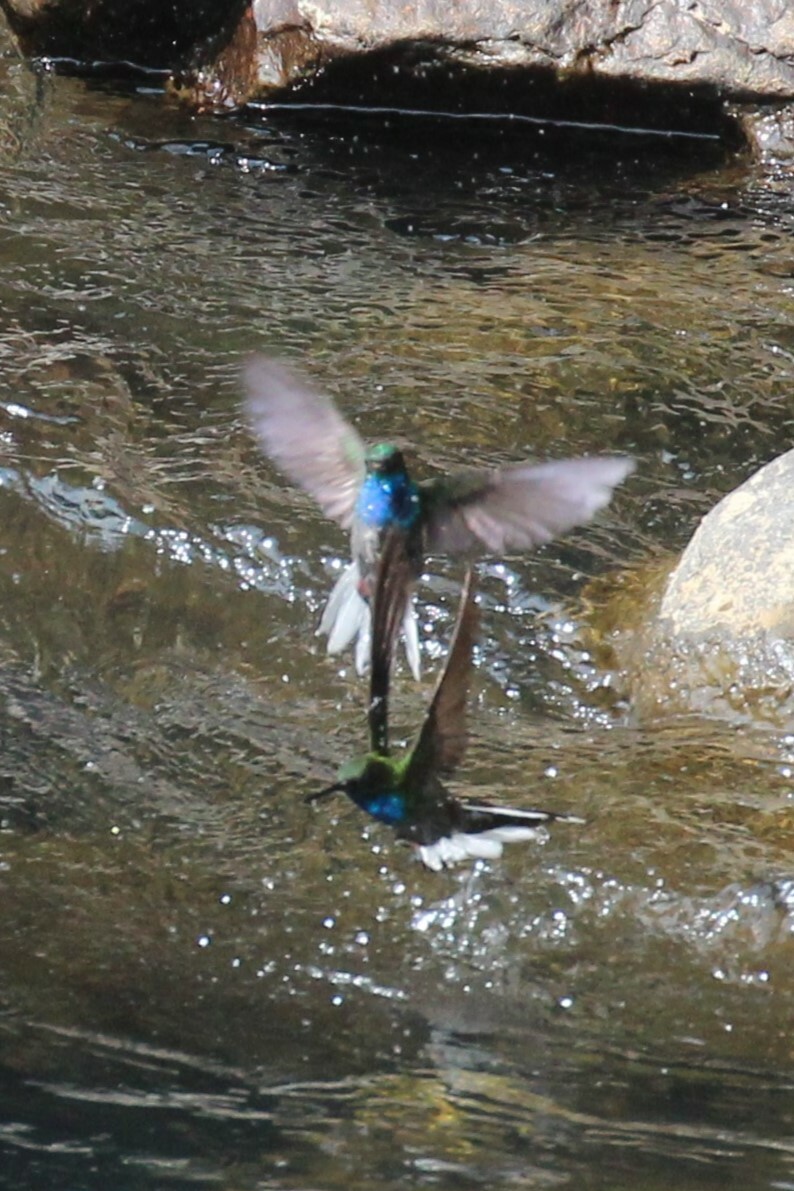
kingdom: Animalia
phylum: Chordata
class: Aves
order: Apodiformes
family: Trochilidae
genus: Urochroa
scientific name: Urochroa leucura
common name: Green-backed hillstar
